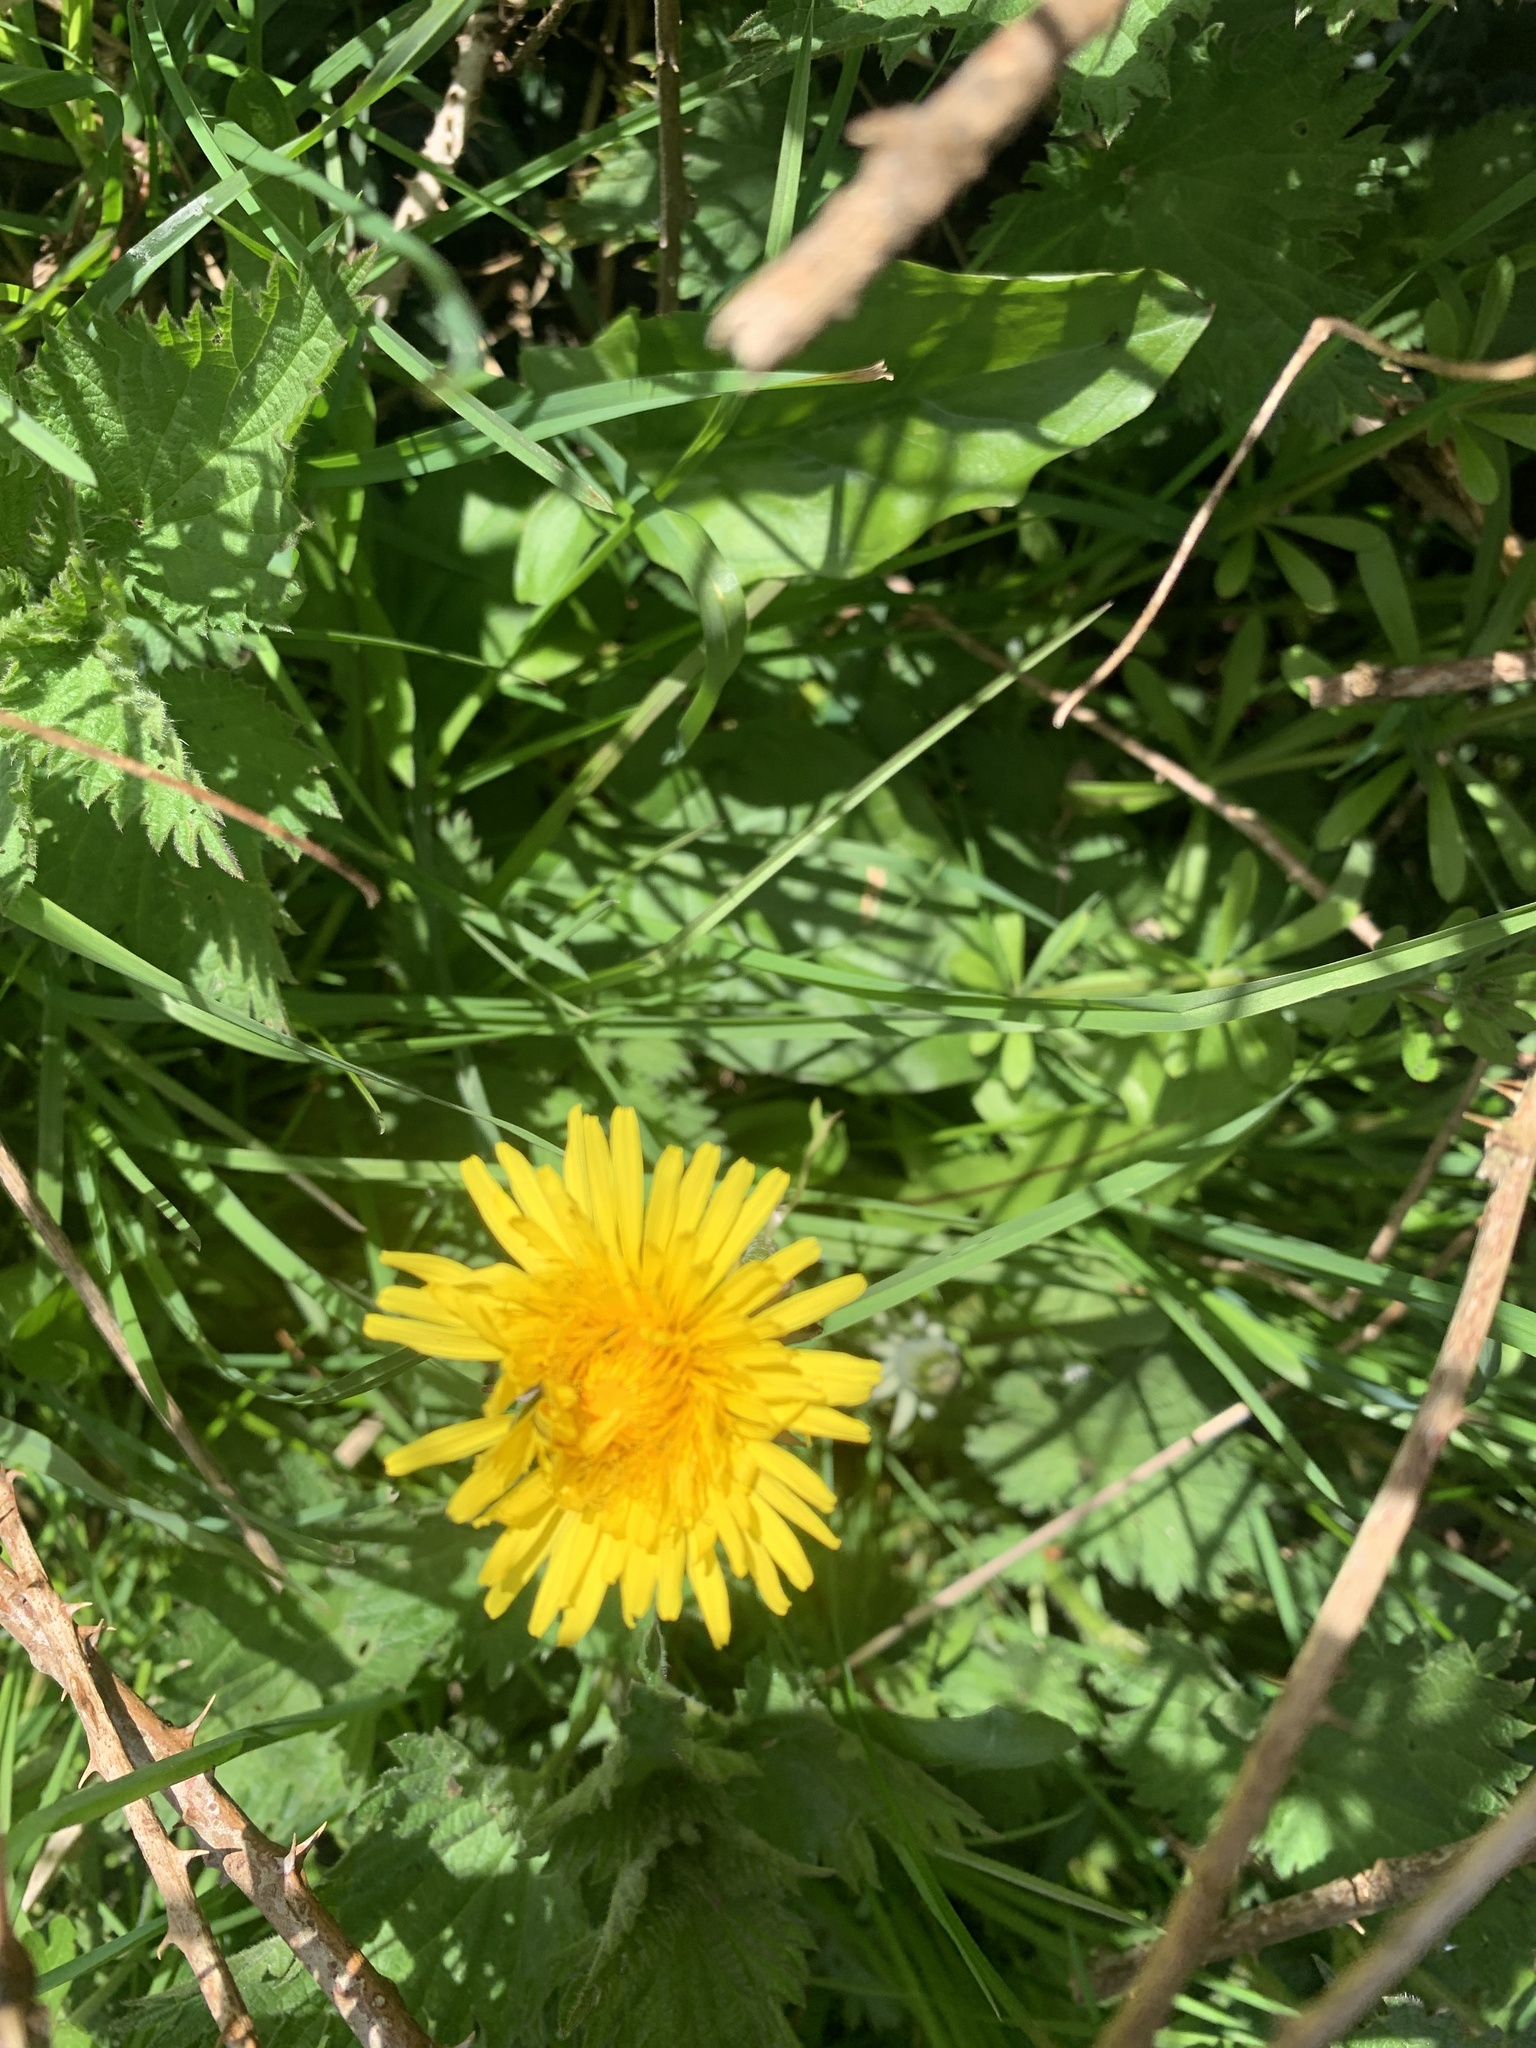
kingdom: Plantae
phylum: Tracheophyta
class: Magnoliopsida
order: Asterales
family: Asteraceae
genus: Taraxacum
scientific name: Taraxacum officinale
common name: Common dandelion
